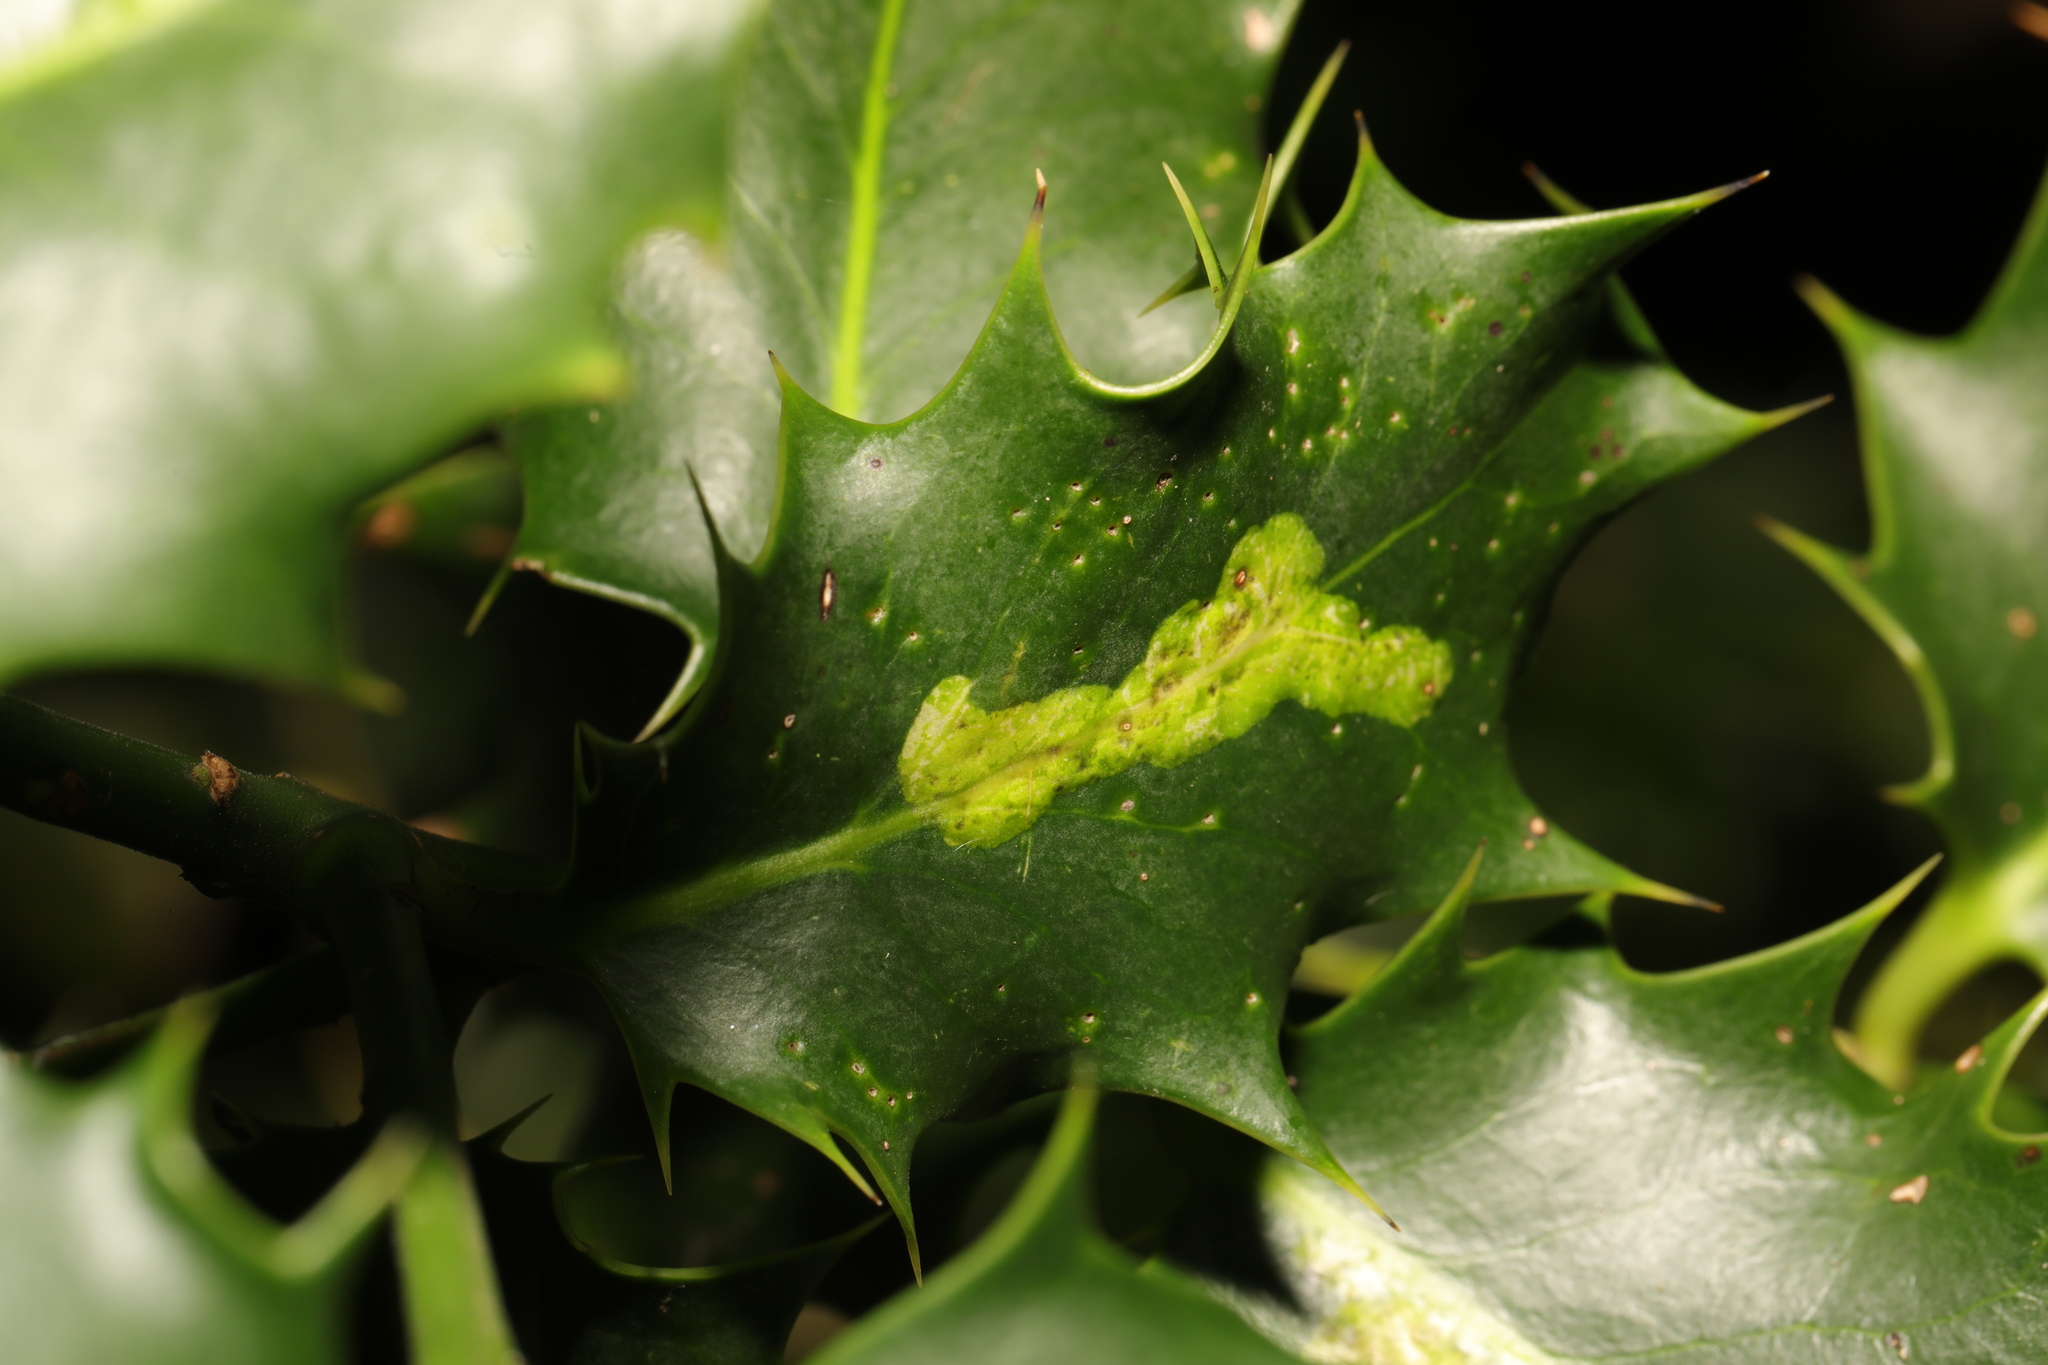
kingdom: Animalia
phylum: Arthropoda
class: Insecta
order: Diptera
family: Agromyzidae
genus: Phytomyza
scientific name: Phytomyza ilicis
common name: Holly leafminer
